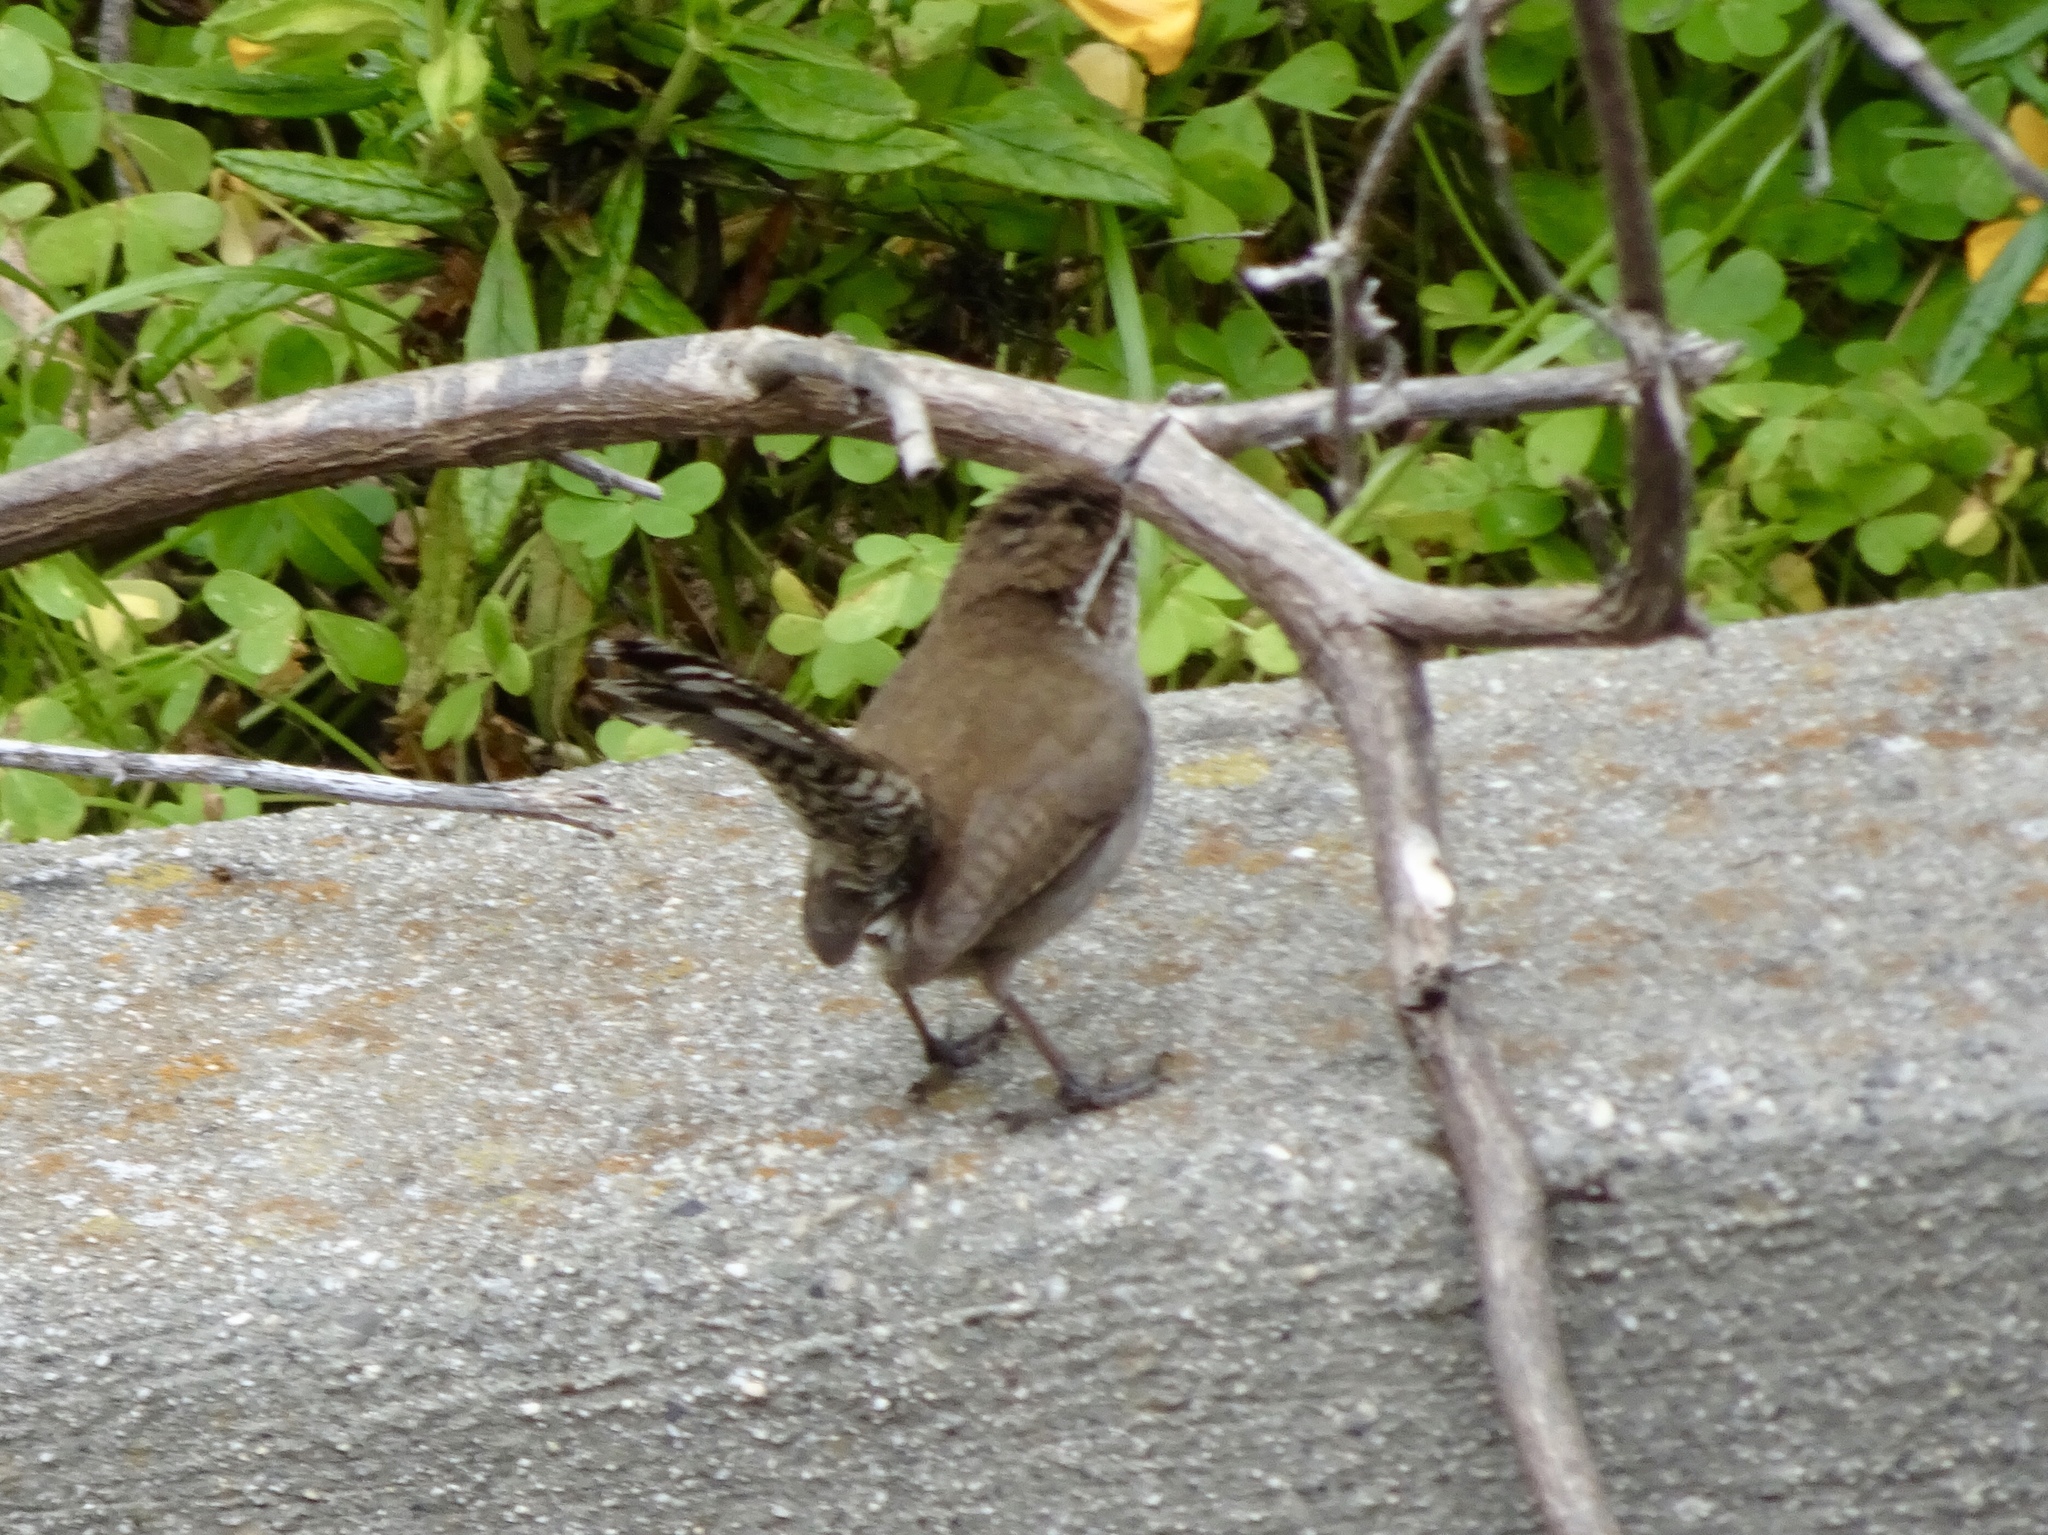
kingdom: Animalia
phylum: Chordata
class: Aves
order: Passeriformes
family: Troglodytidae
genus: Thryomanes
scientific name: Thryomanes bewickii
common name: Bewick's wren
